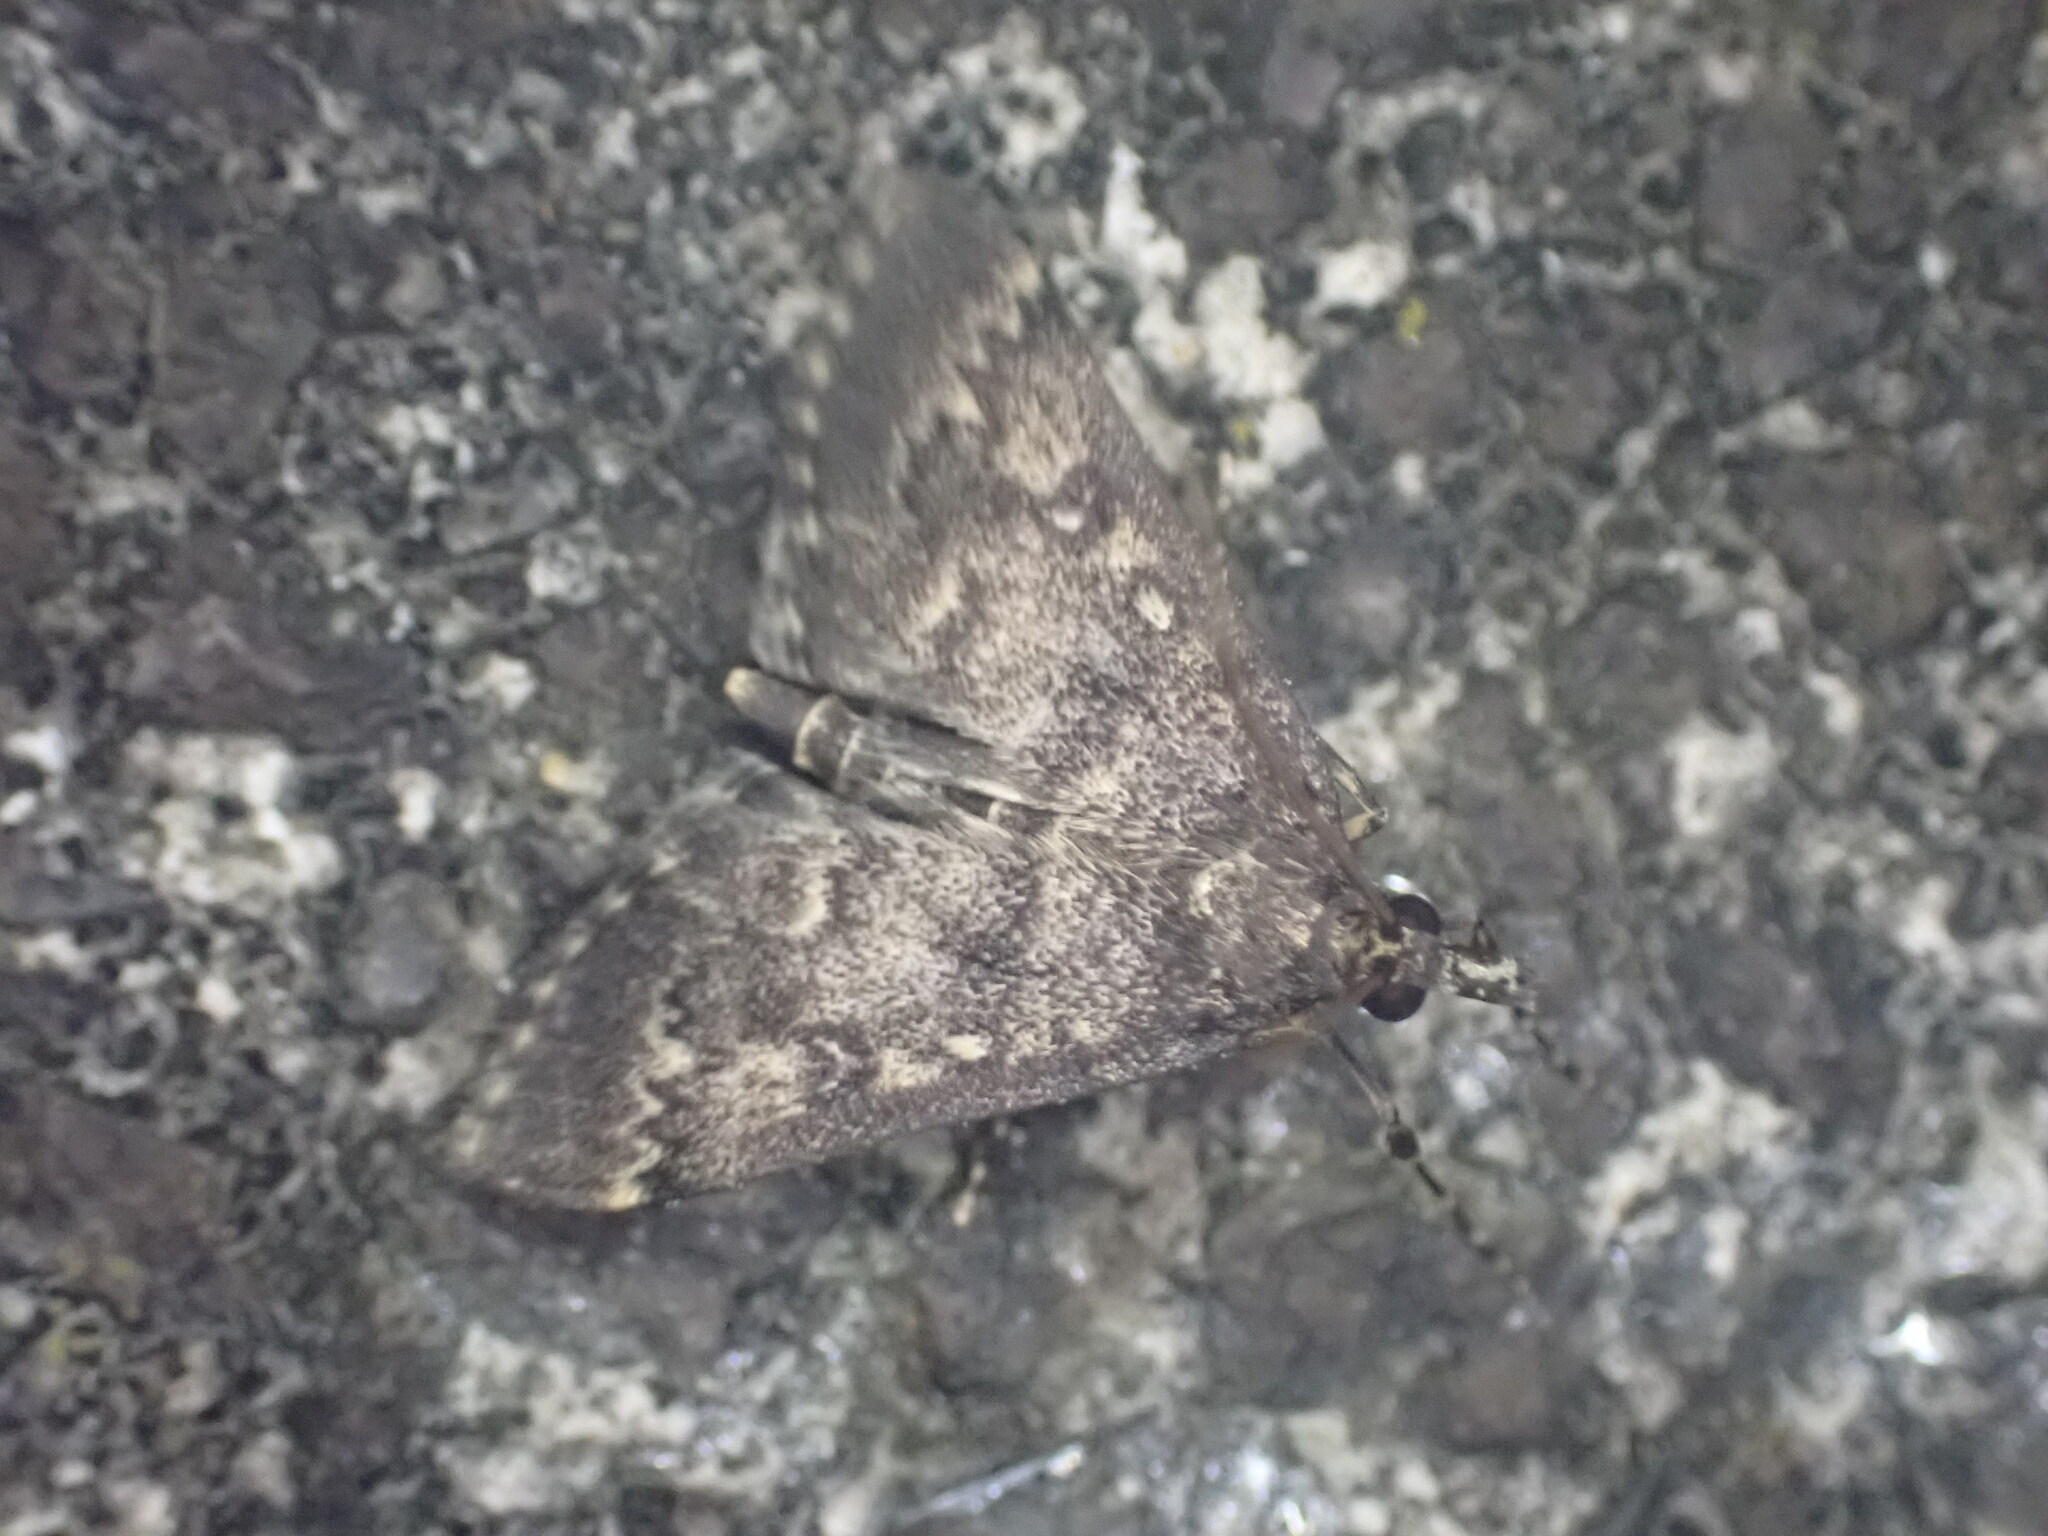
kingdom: Animalia
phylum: Arthropoda
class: Insecta
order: Lepidoptera
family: Crambidae
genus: Loxostege
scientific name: Loxostege Proternia philocapna
